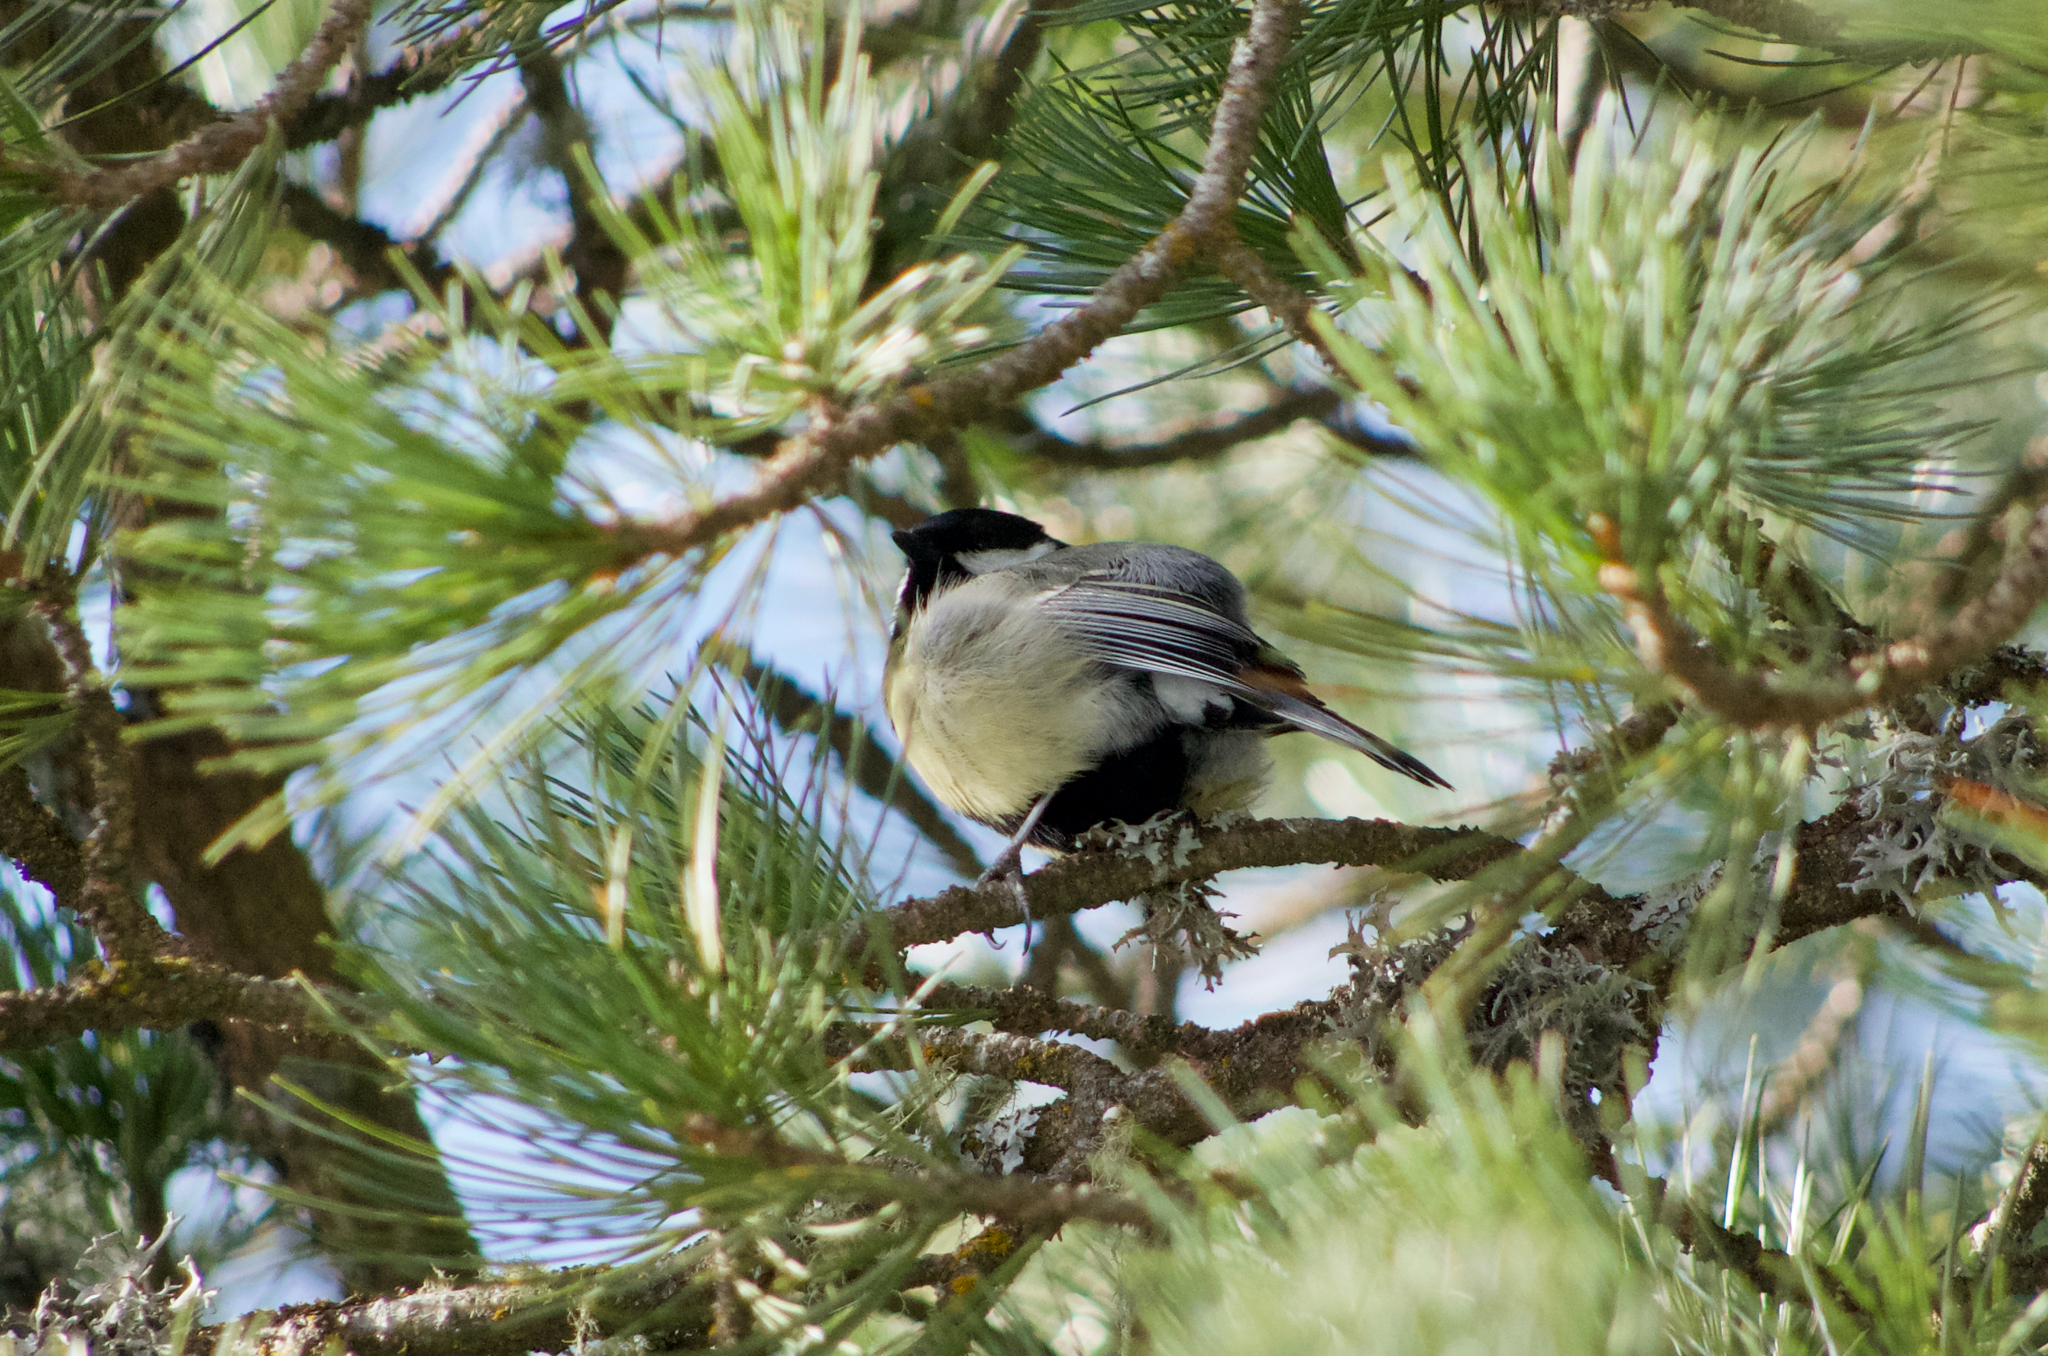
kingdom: Animalia
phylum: Chordata
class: Aves
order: Passeriformes
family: Paridae
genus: Parus
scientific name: Parus major
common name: Great tit
